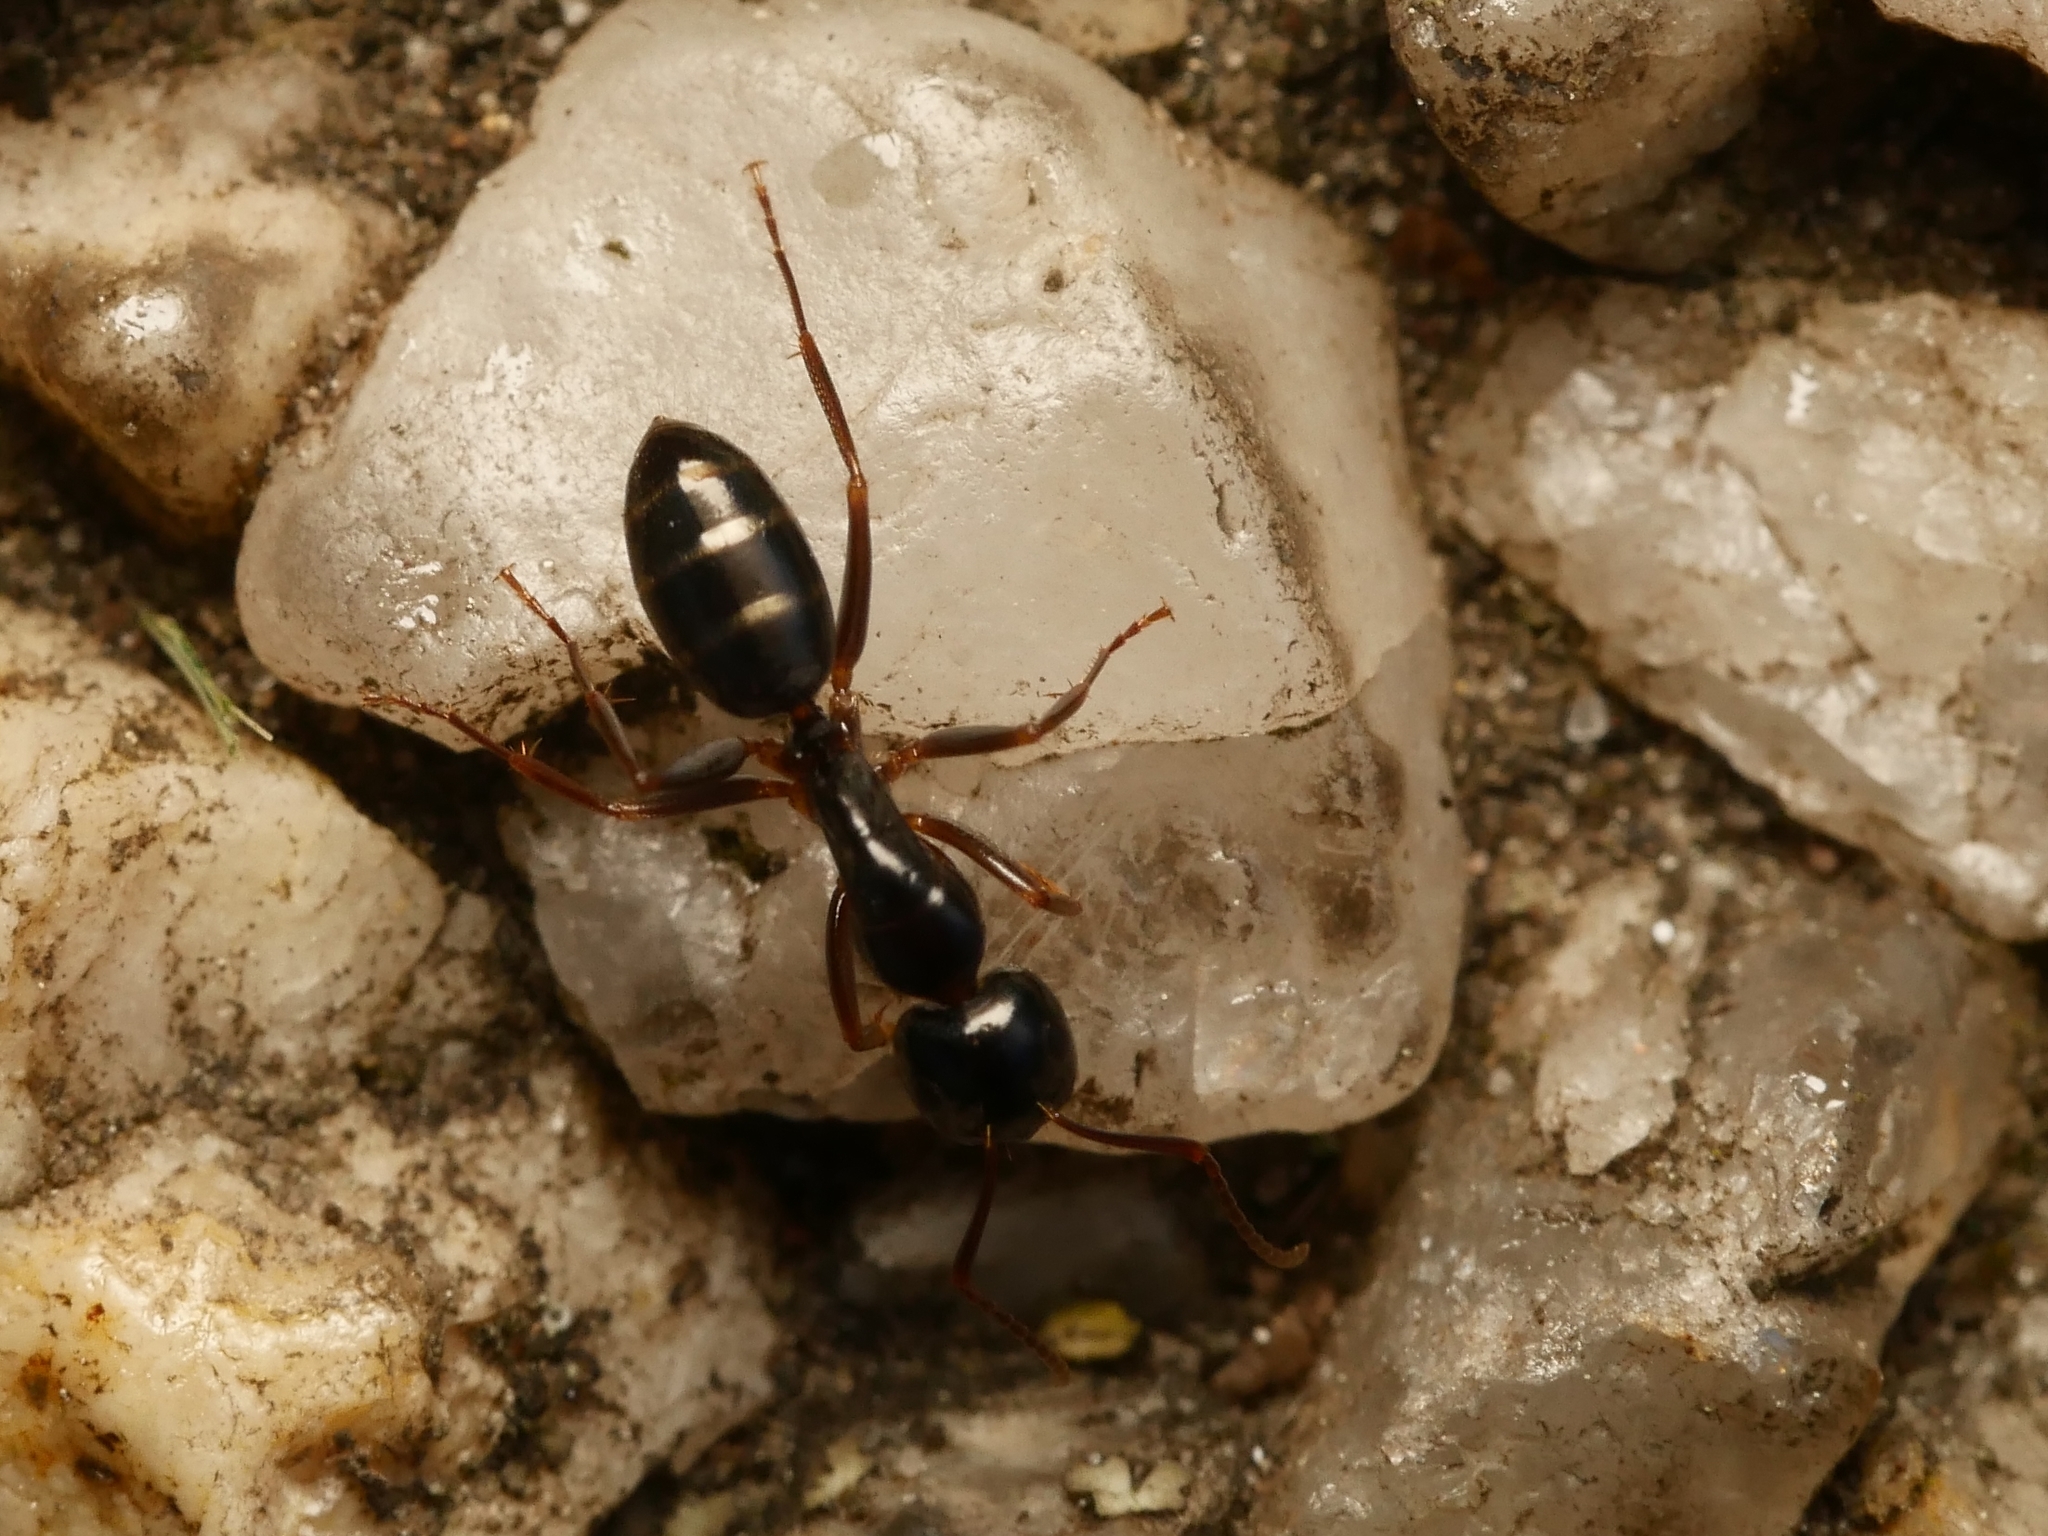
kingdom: Animalia
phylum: Arthropoda
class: Insecta
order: Hymenoptera
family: Formicidae
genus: Camponotus
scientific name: Camponotus fallax
